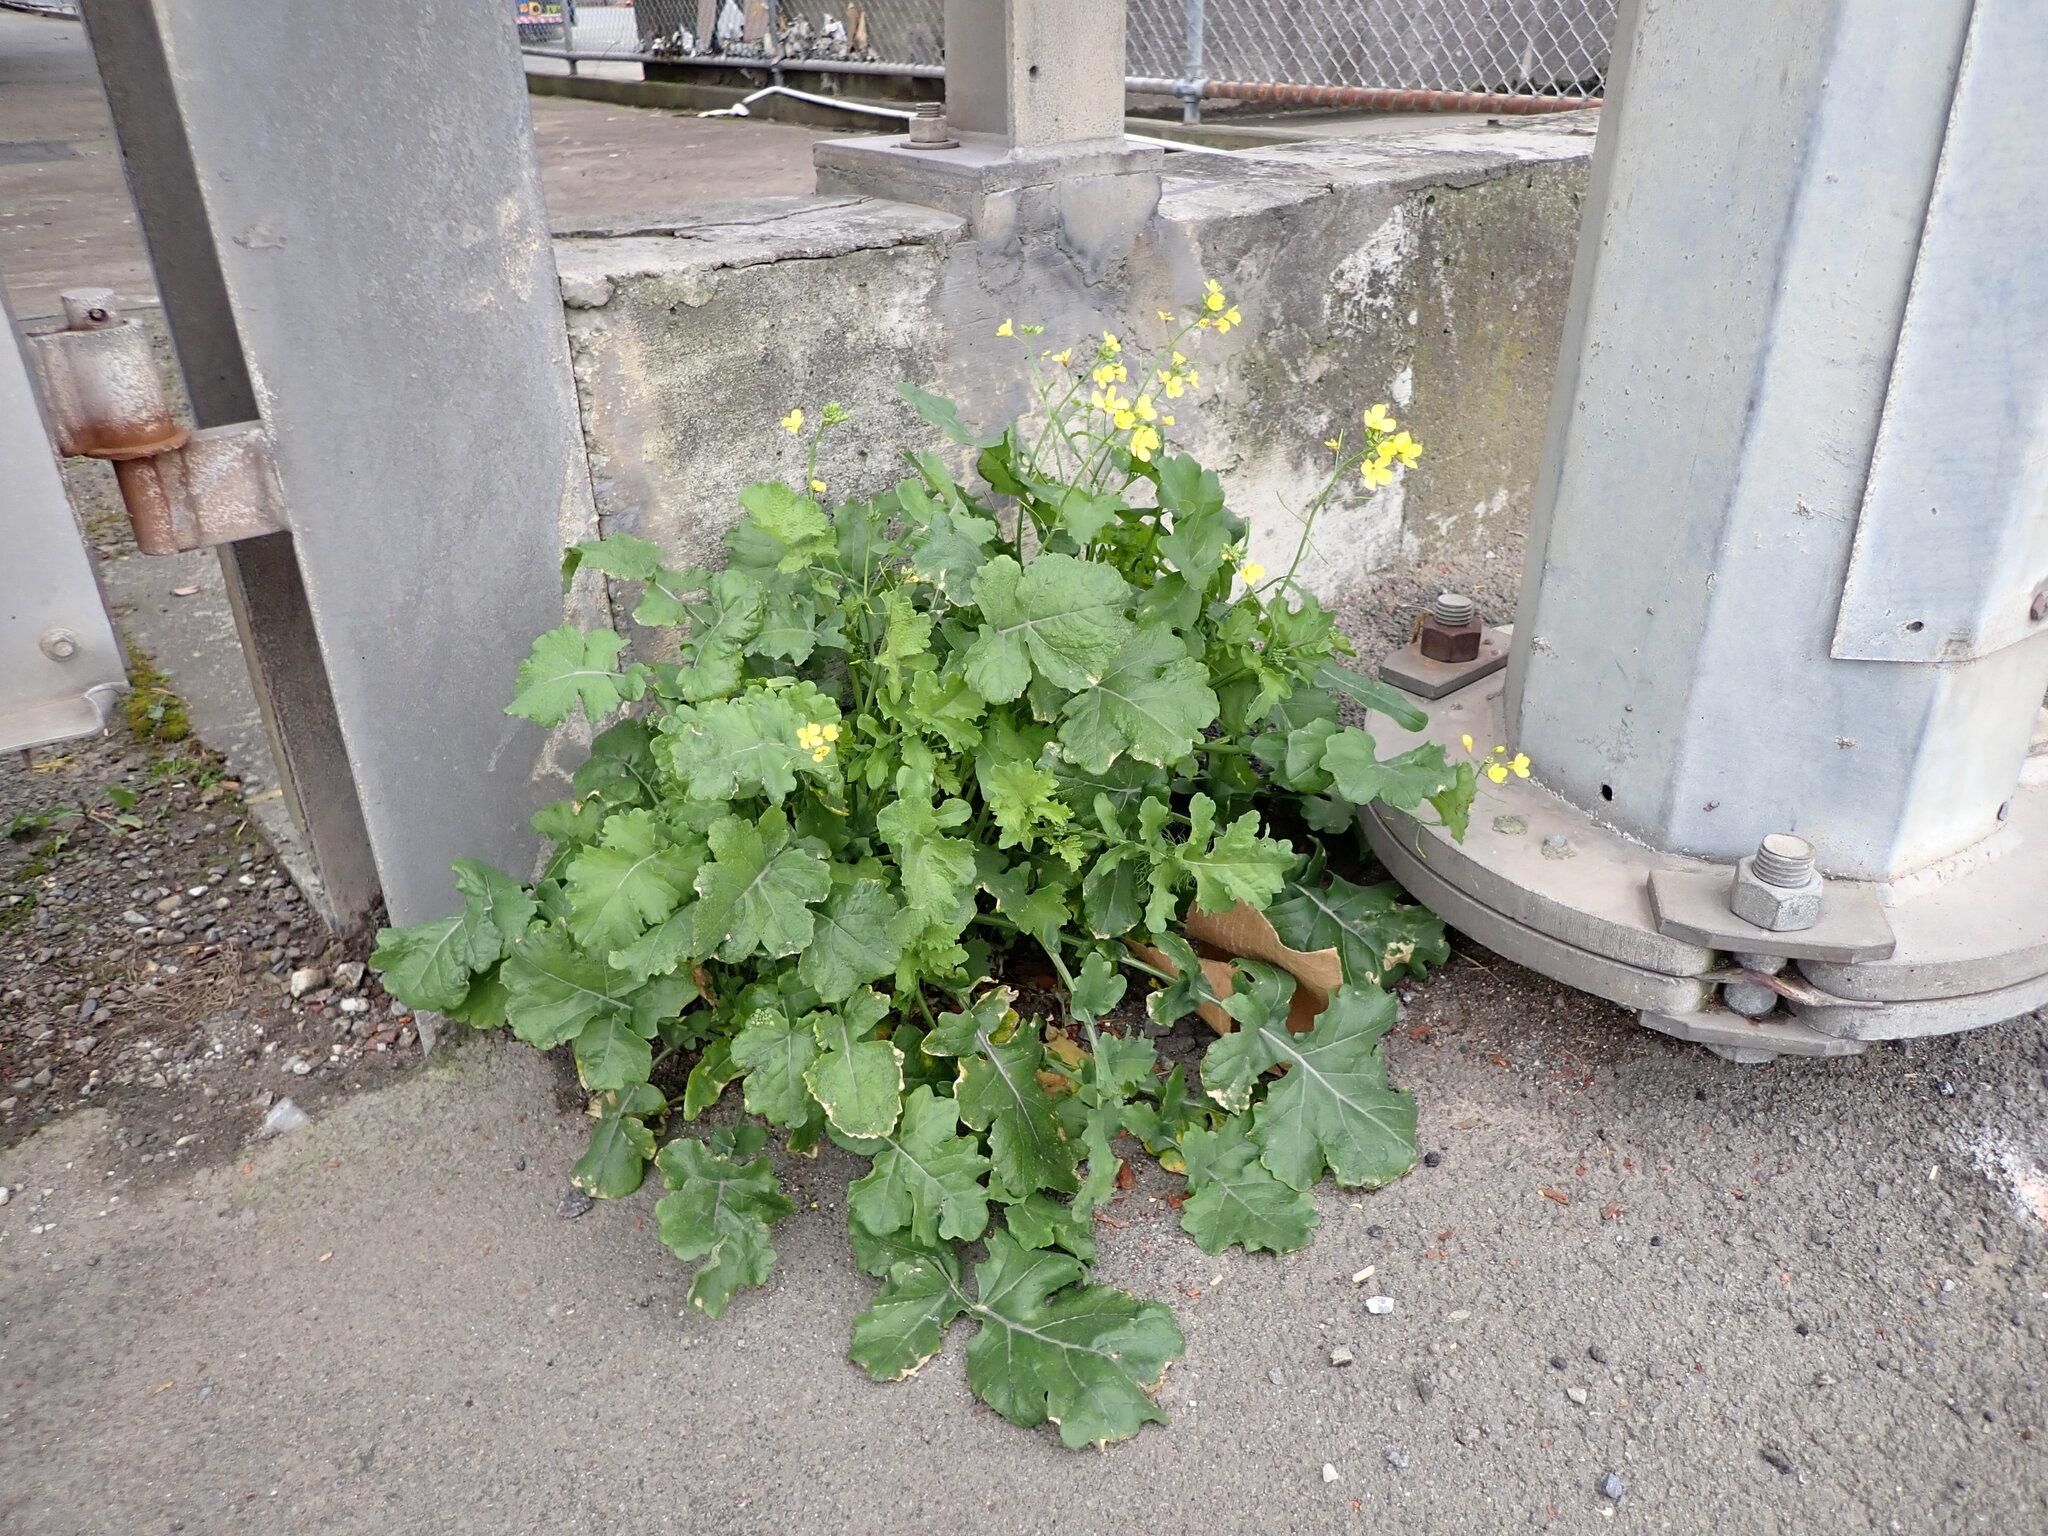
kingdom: Plantae
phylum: Tracheophyta
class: Magnoliopsida
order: Brassicales
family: Brassicaceae
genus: Brassica
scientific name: Brassica fruticulosa
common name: Twiggy turnip
